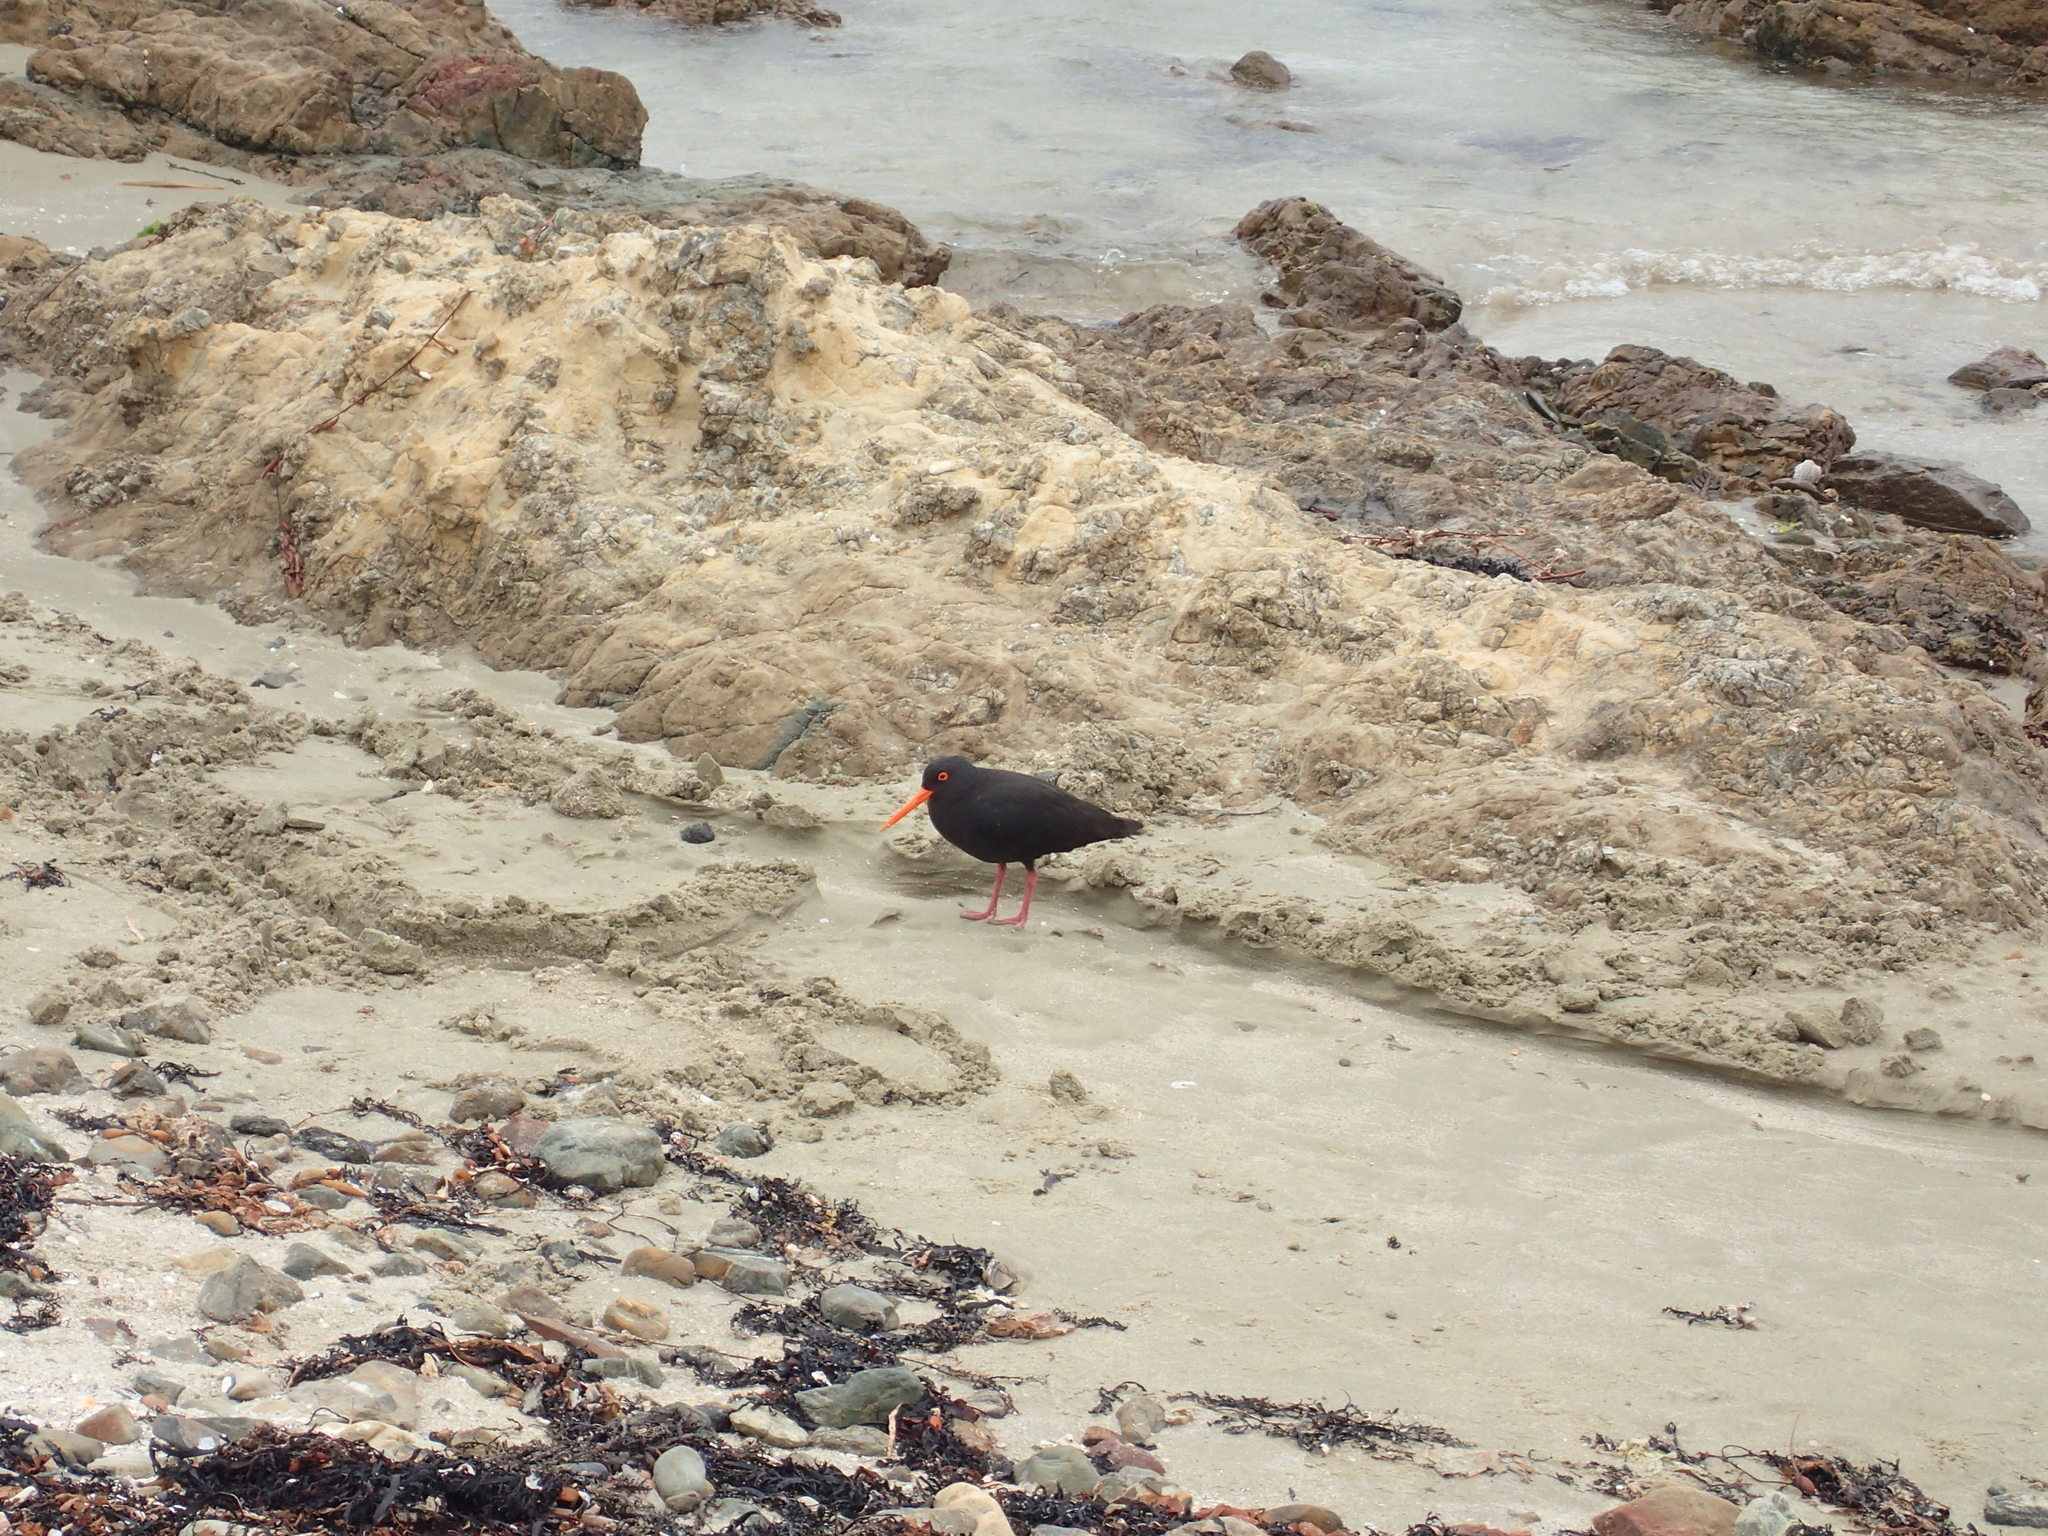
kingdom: Animalia
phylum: Chordata
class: Aves
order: Charadriiformes
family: Haematopodidae
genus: Haematopus
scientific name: Haematopus unicolor
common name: Variable oystercatcher
